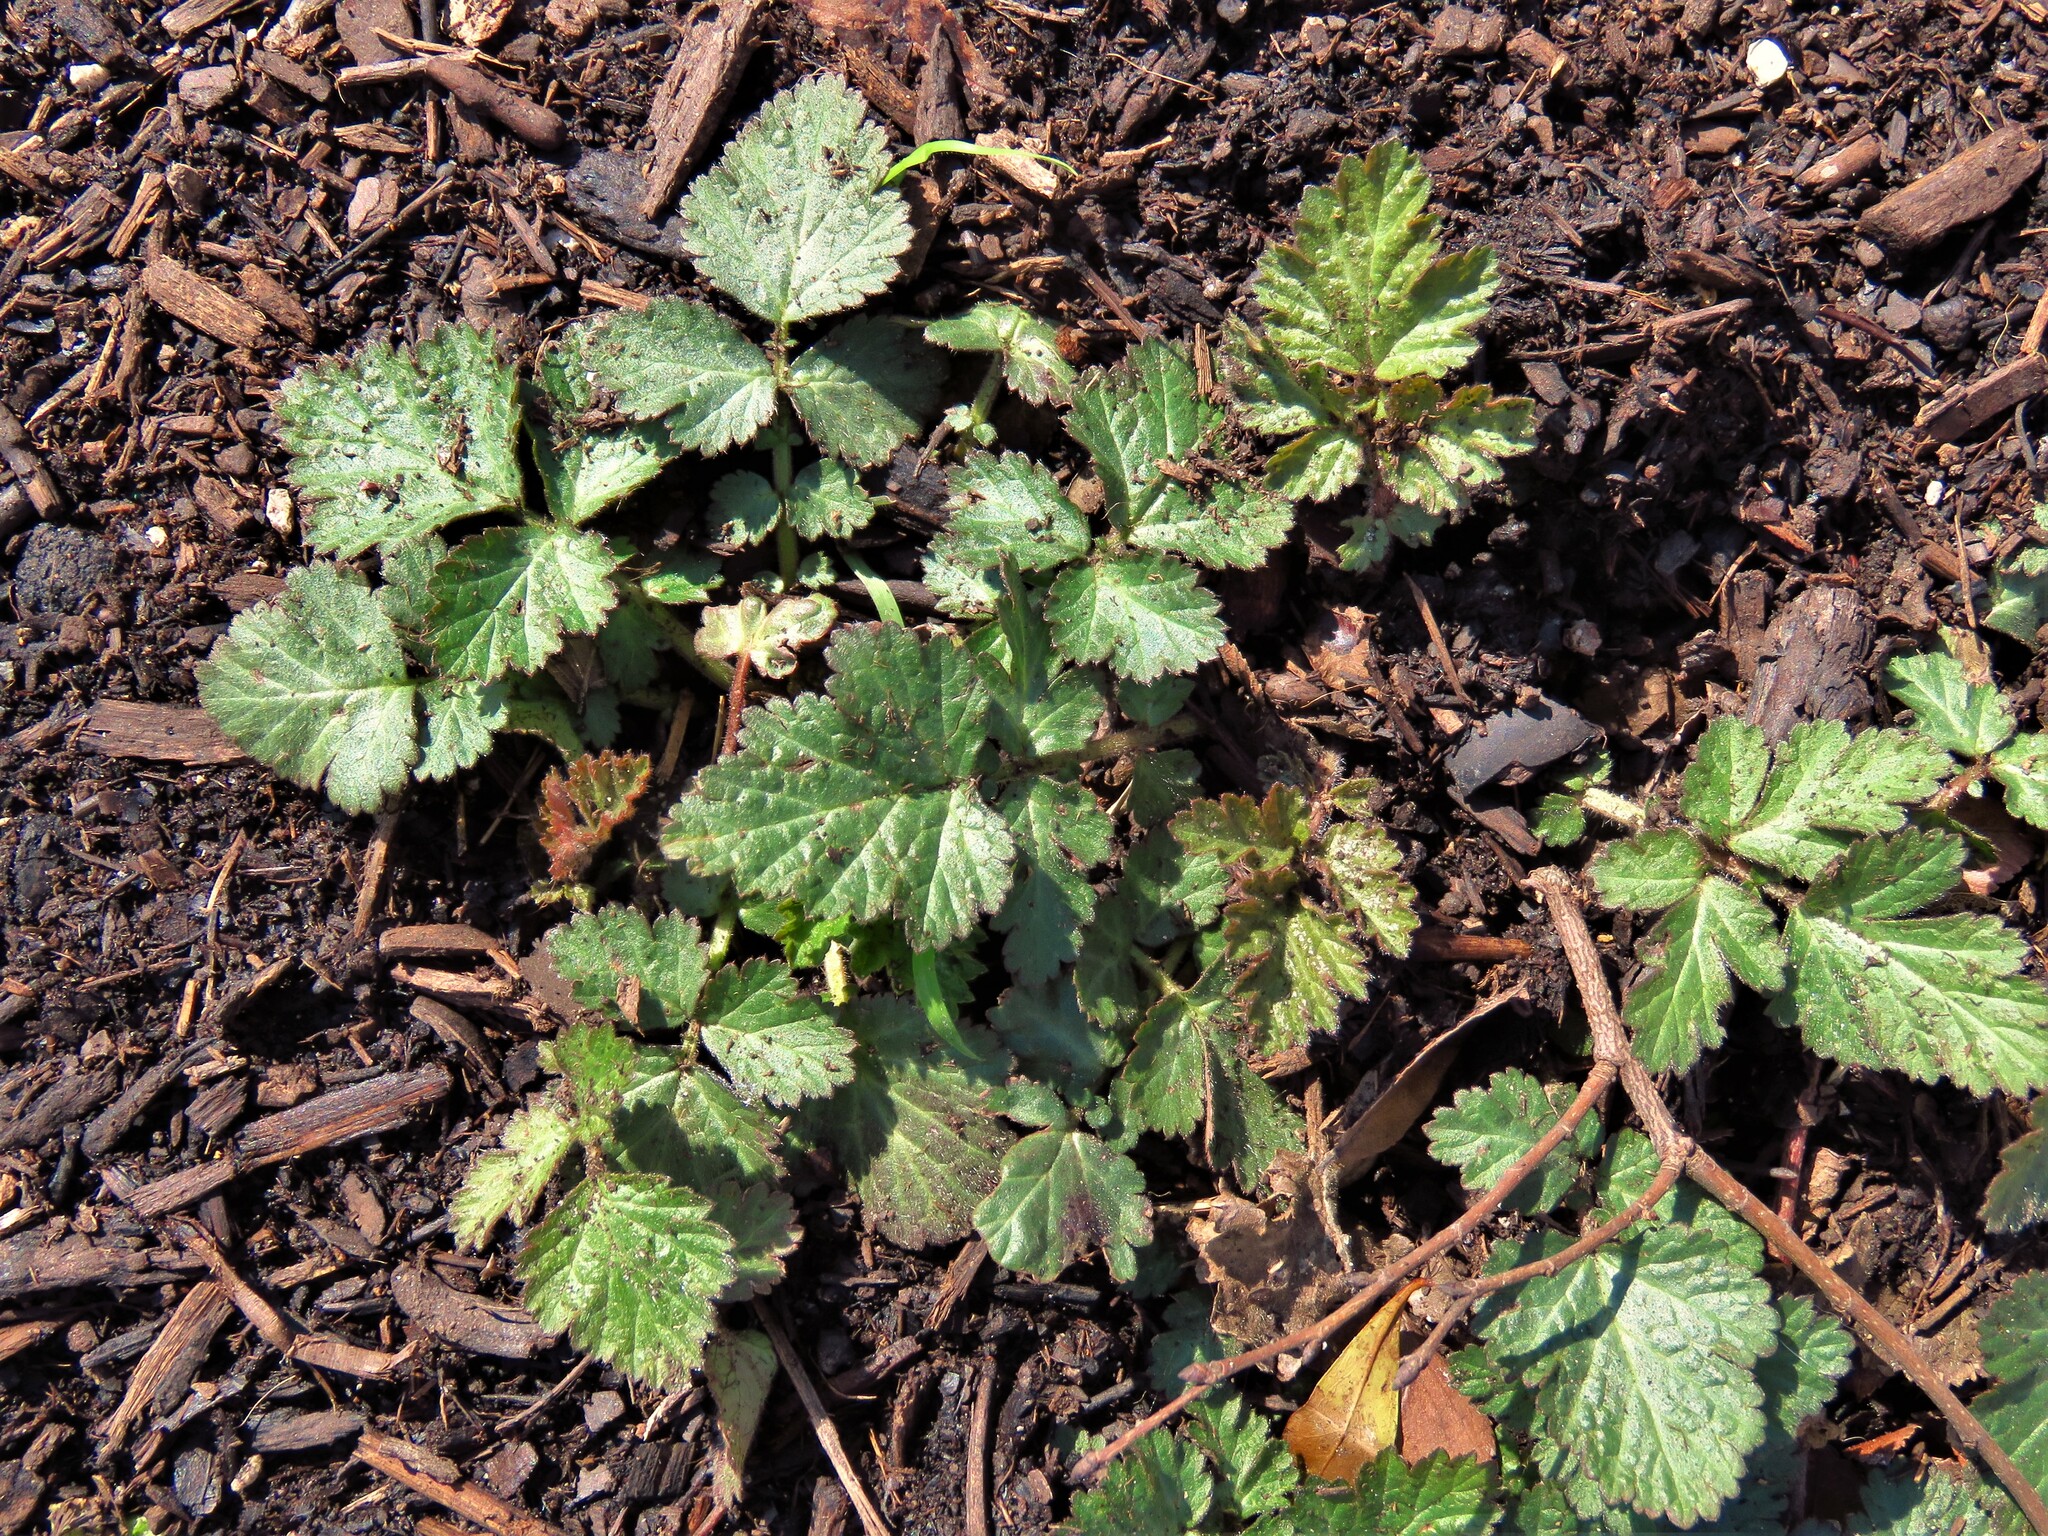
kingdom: Plantae
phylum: Tracheophyta
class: Magnoliopsida
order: Rosales
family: Rosaceae
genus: Geum
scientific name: Geum canadense
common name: White avens
